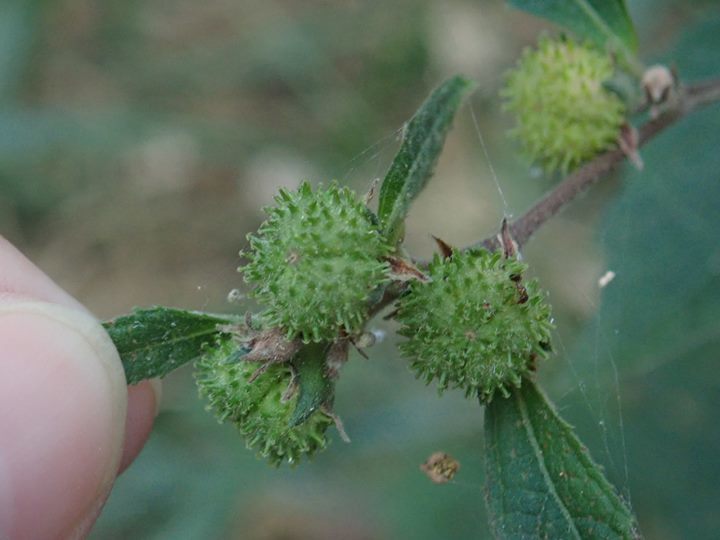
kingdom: Plantae
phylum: Tracheophyta
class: Magnoliopsida
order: Malvales
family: Malvaceae
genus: Urena
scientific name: Urena lobata
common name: Caesarweed
